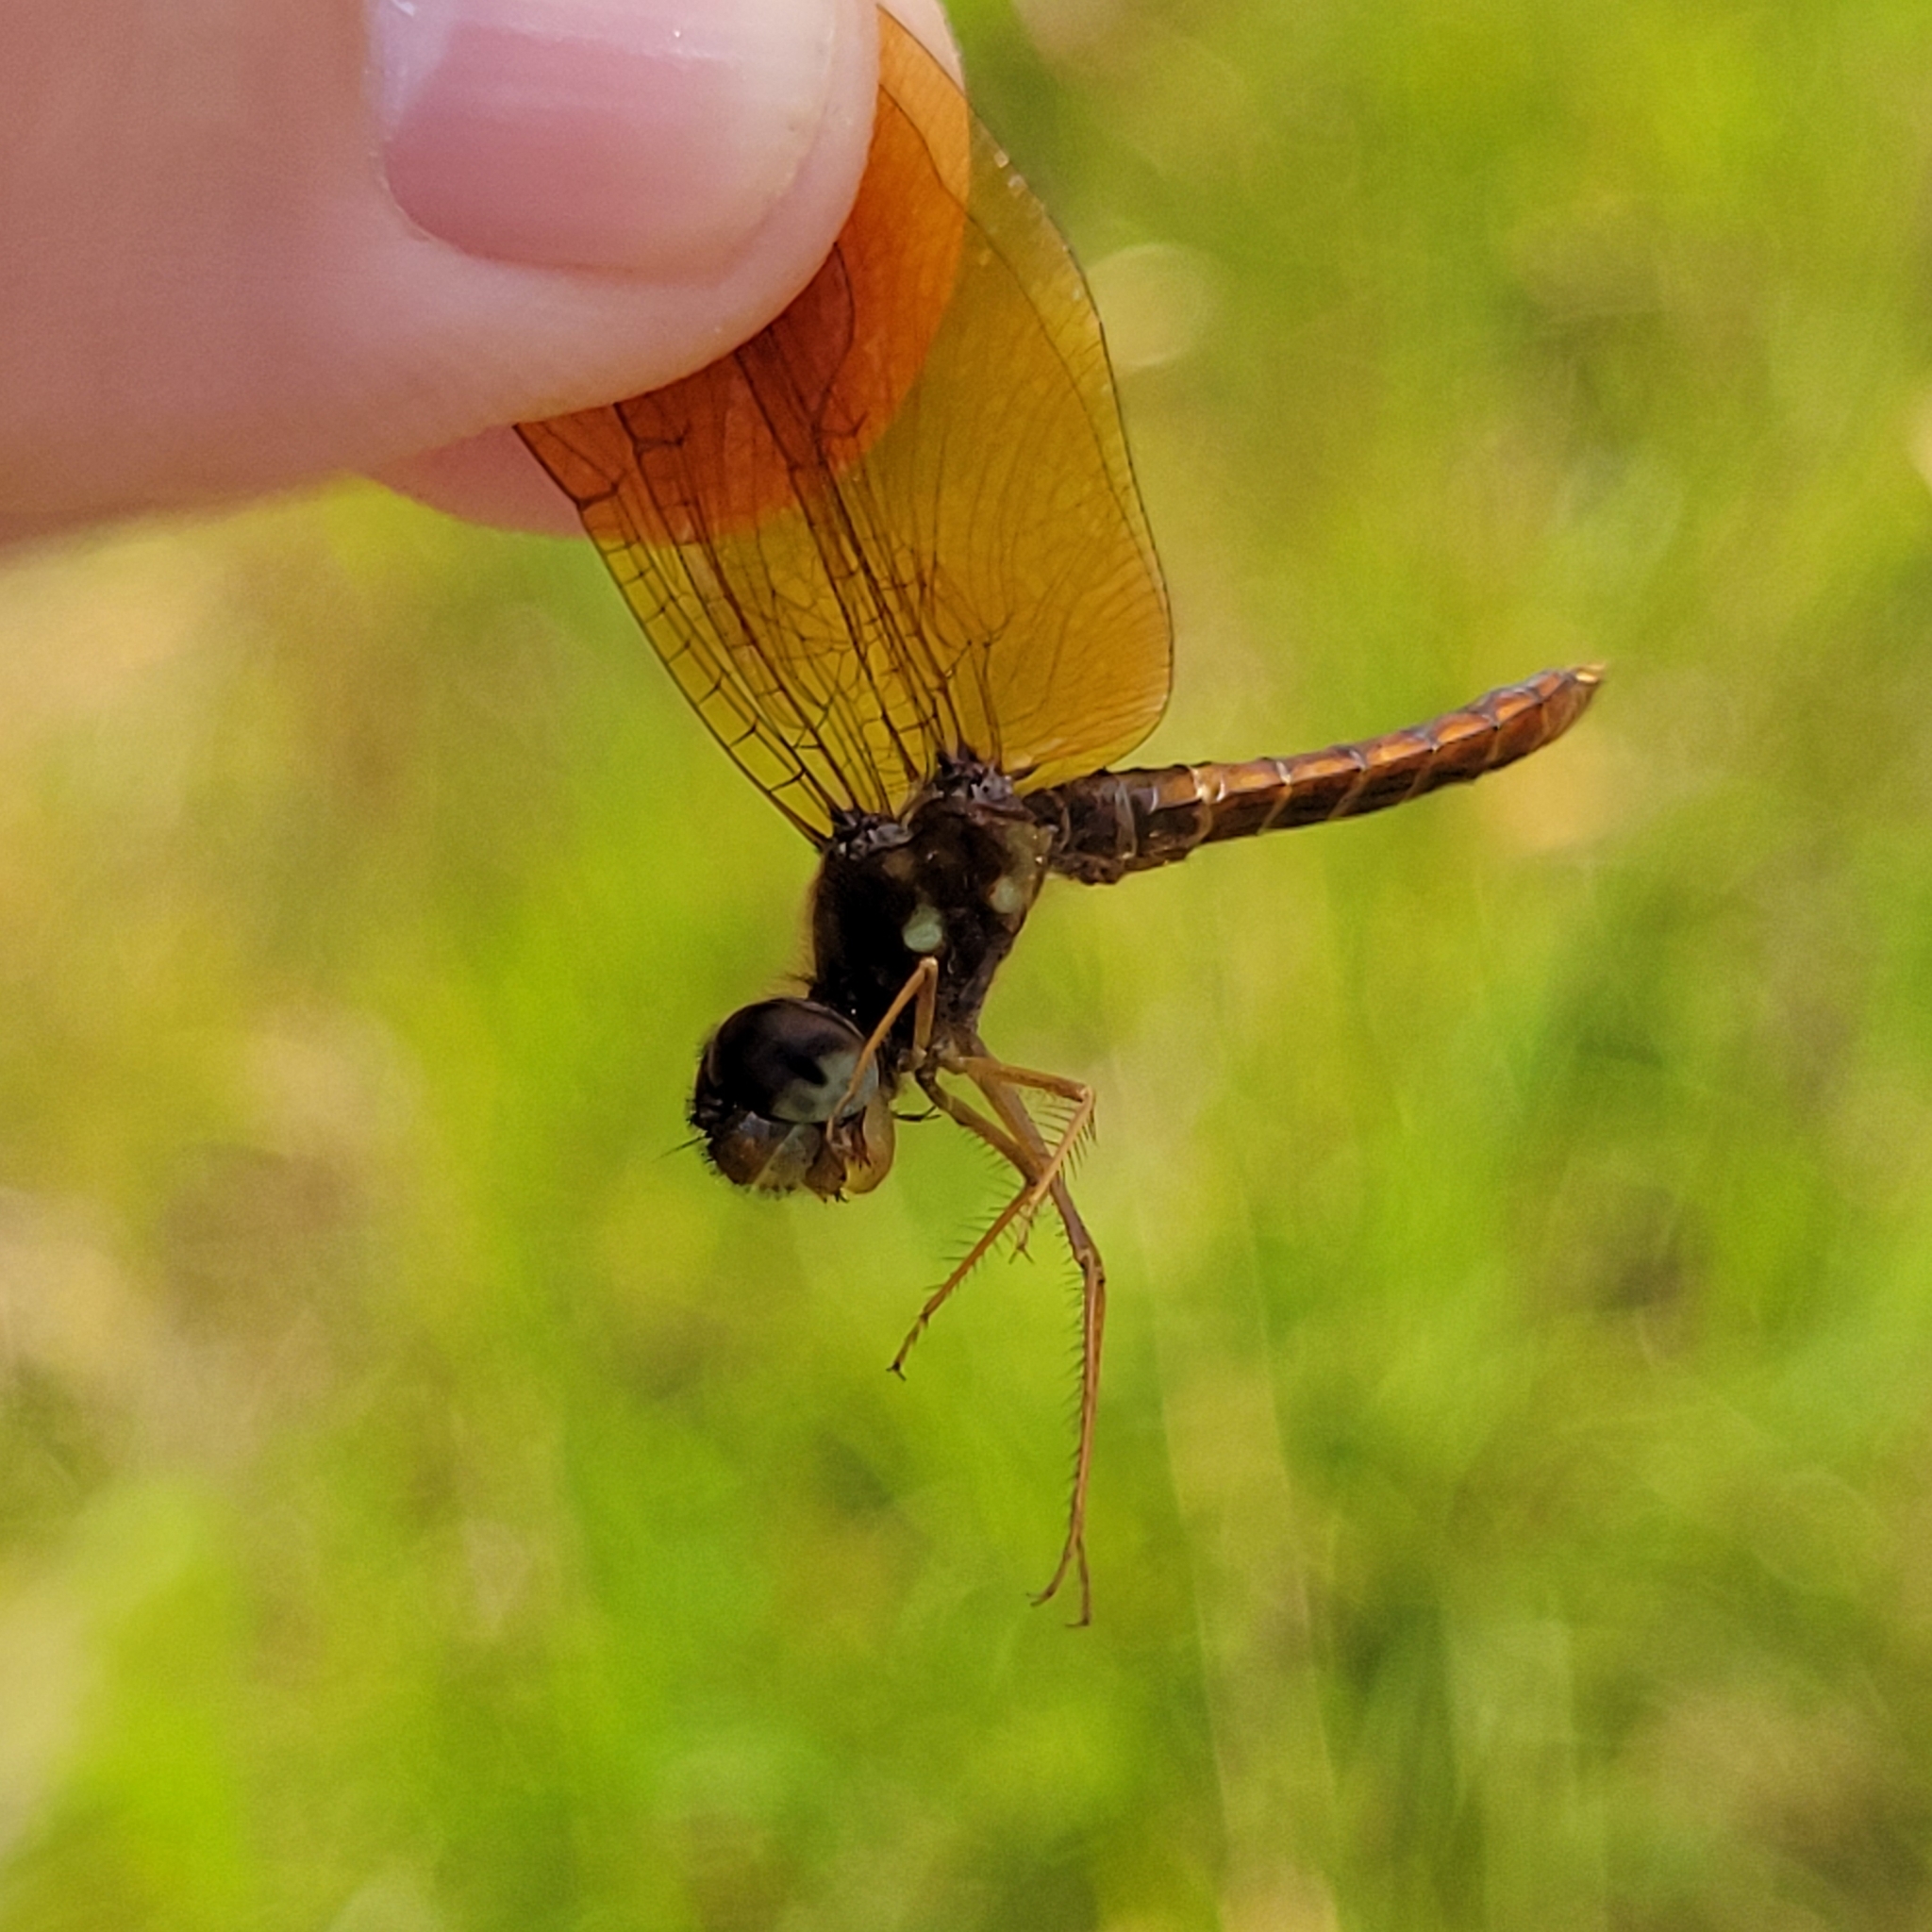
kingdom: Animalia
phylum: Arthropoda
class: Insecta
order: Odonata
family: Libellulidae
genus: Perithemis
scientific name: Perithemis tenera
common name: Eastern amberwing
